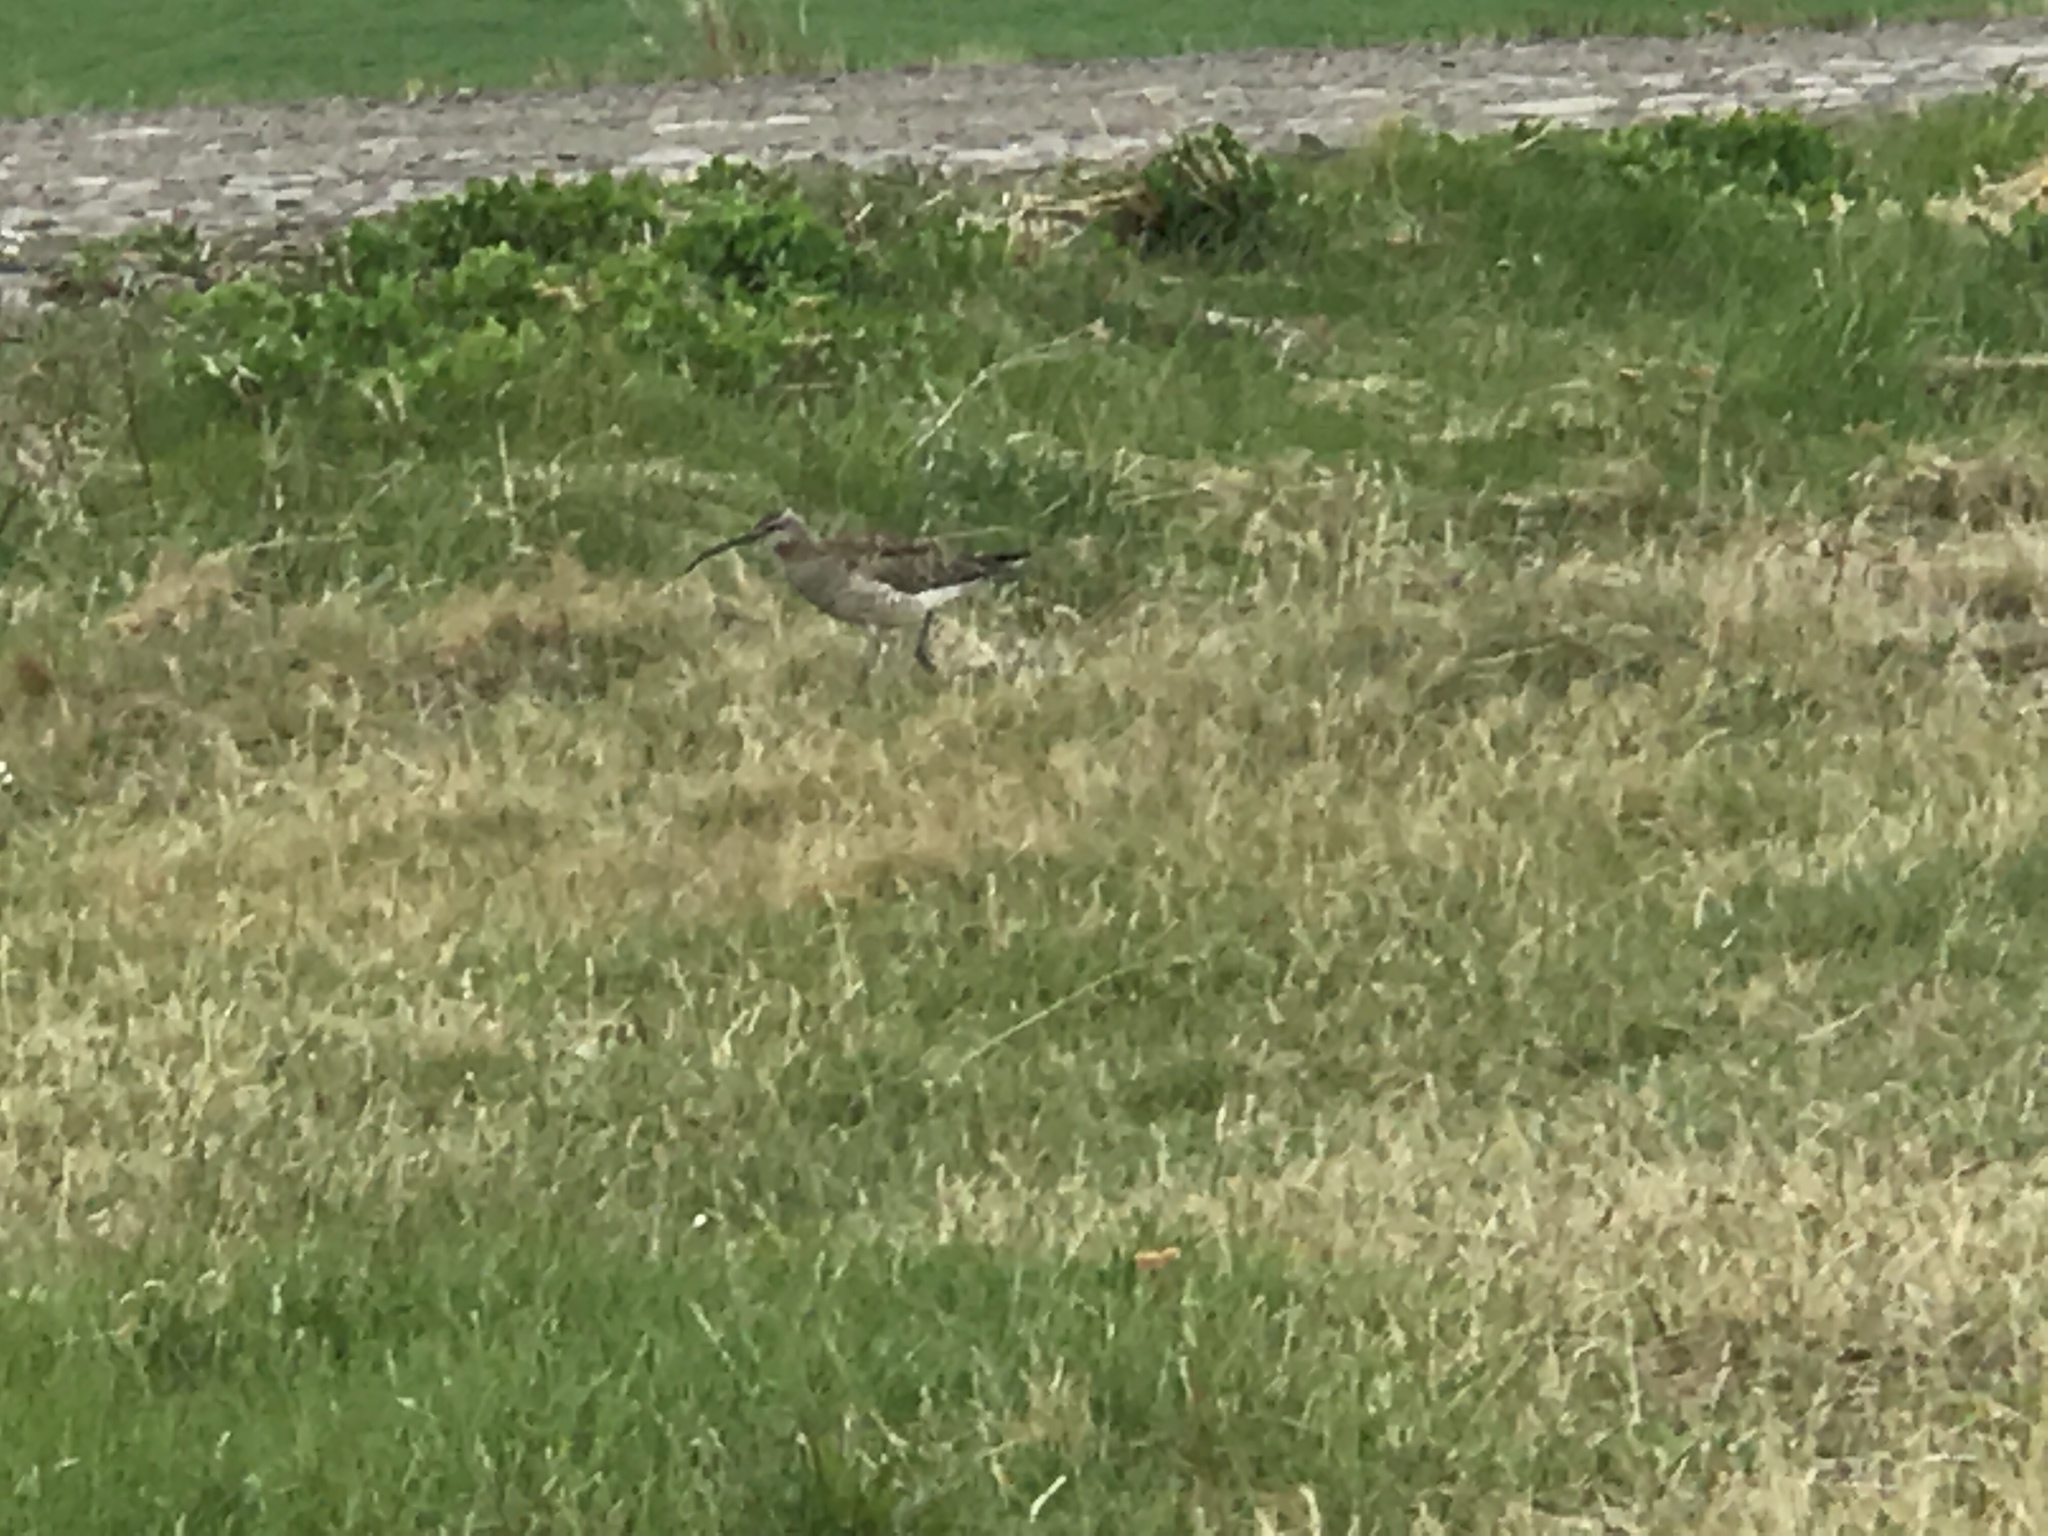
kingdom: Animalia
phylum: Chordata
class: Aves
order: Charadriiformes
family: Scolopacidae
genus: Numenius
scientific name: Numenius phaeopus
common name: Whimbrel
